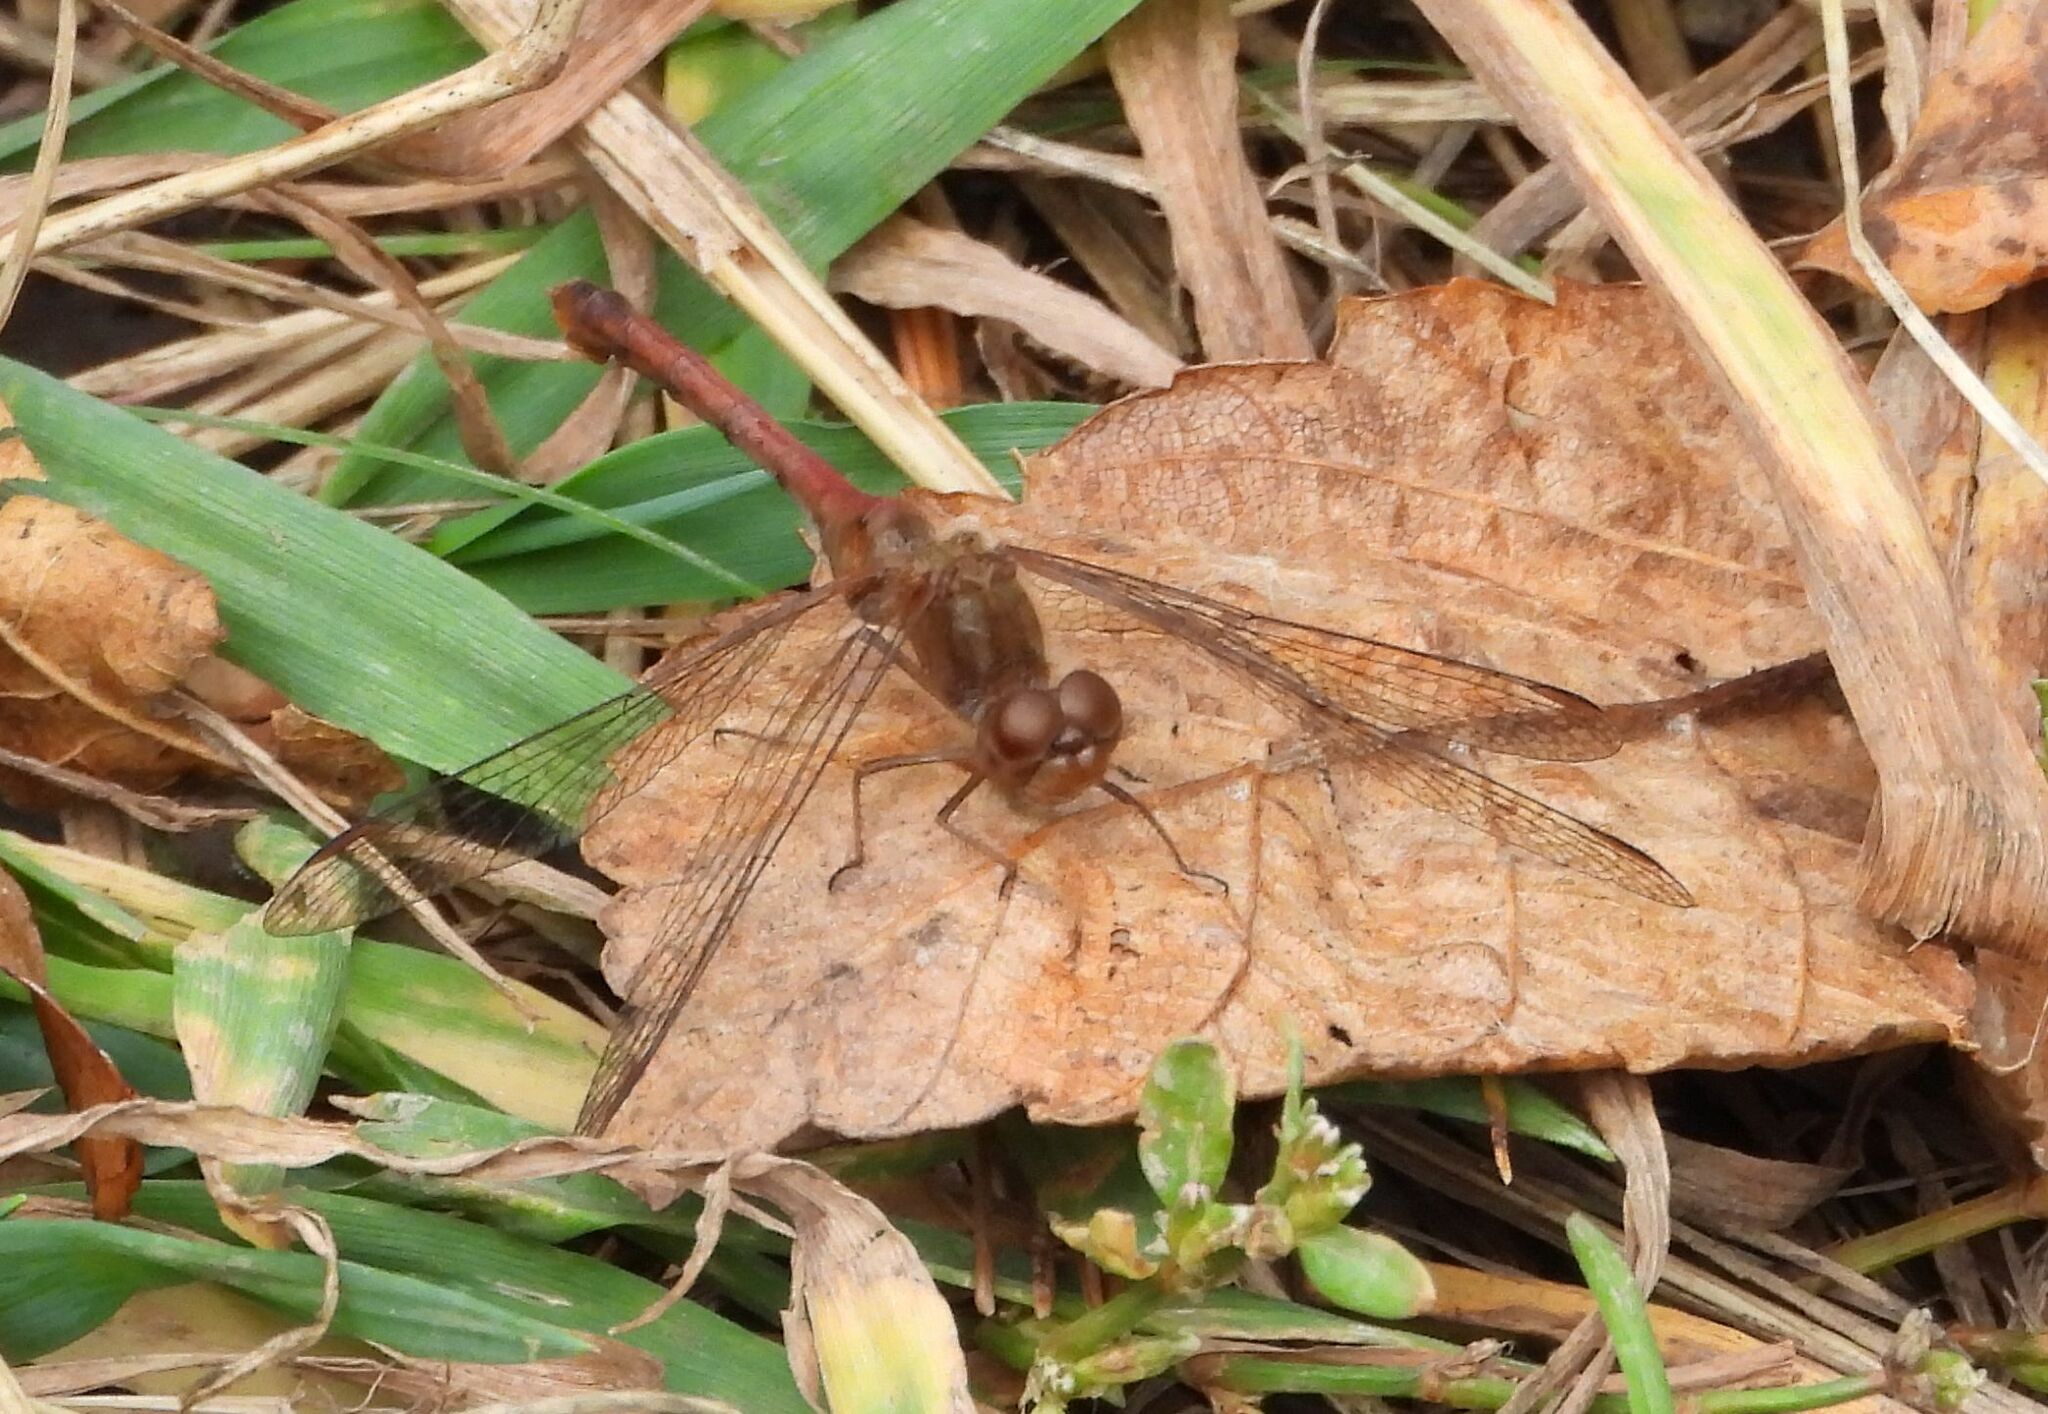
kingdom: Animalia
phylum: Arthropoda
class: Insecta
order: Odonata
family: Libellulidae
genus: Sympetrum
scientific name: Sympetrum vicinum
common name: Autumn meadowhawk
